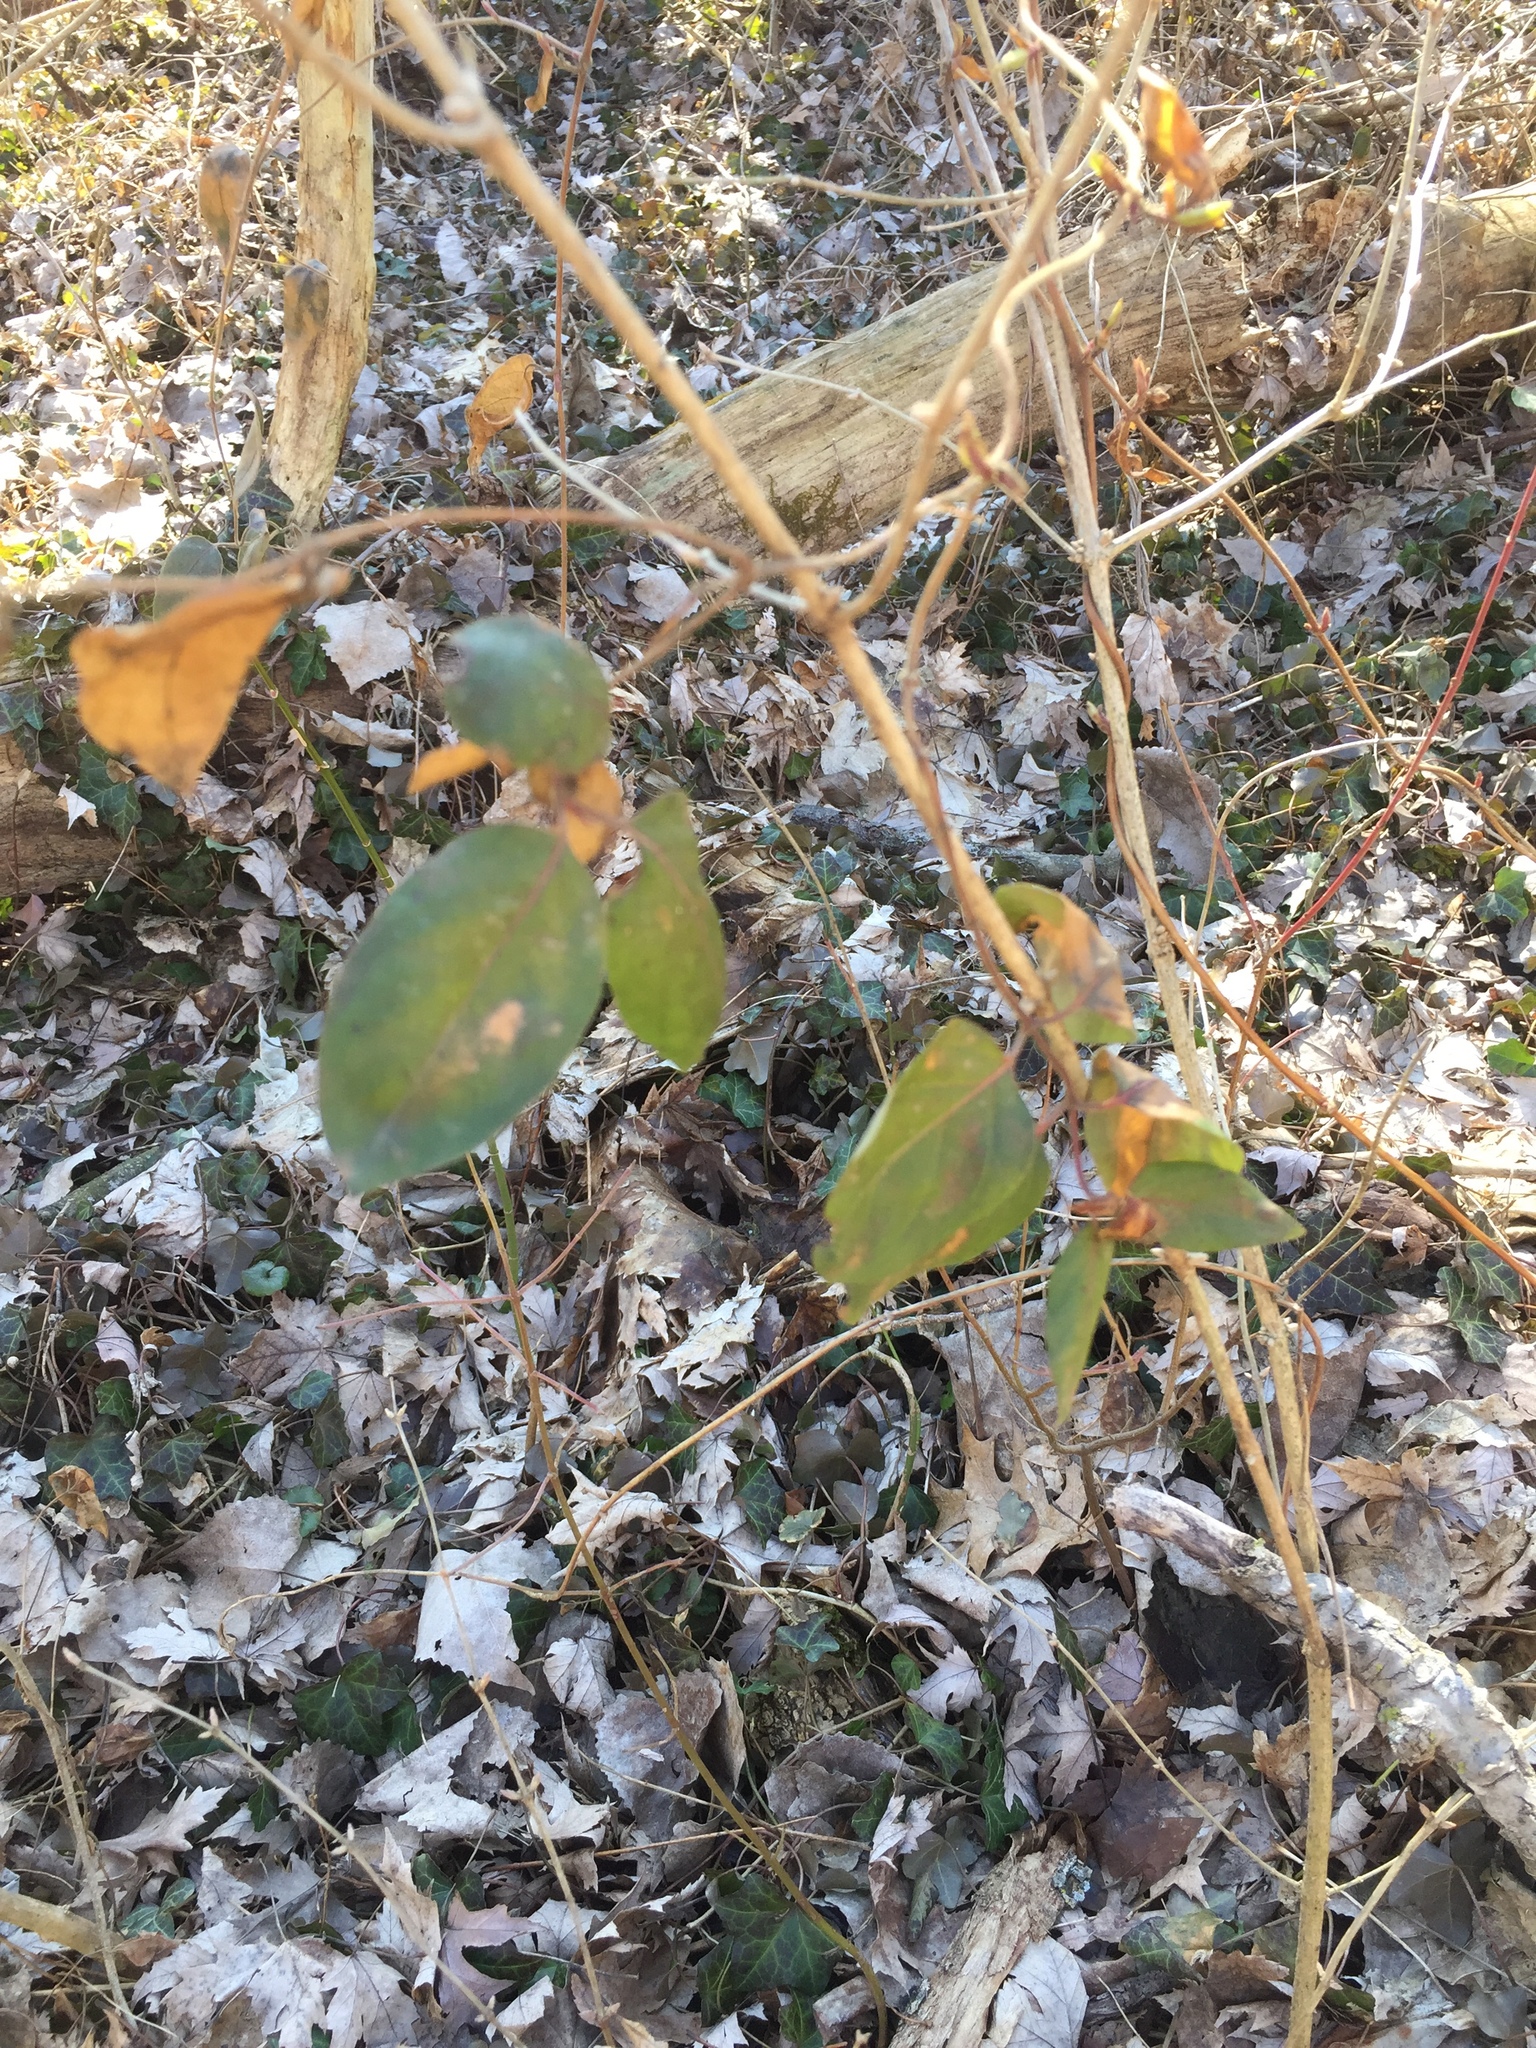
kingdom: Plantae
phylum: Tracheophyta
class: Magnoliopsida
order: Dipsacales
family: Caprifoliaceae
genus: Lonicera
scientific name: Lonicera japonica
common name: Japanese honeysuckle
